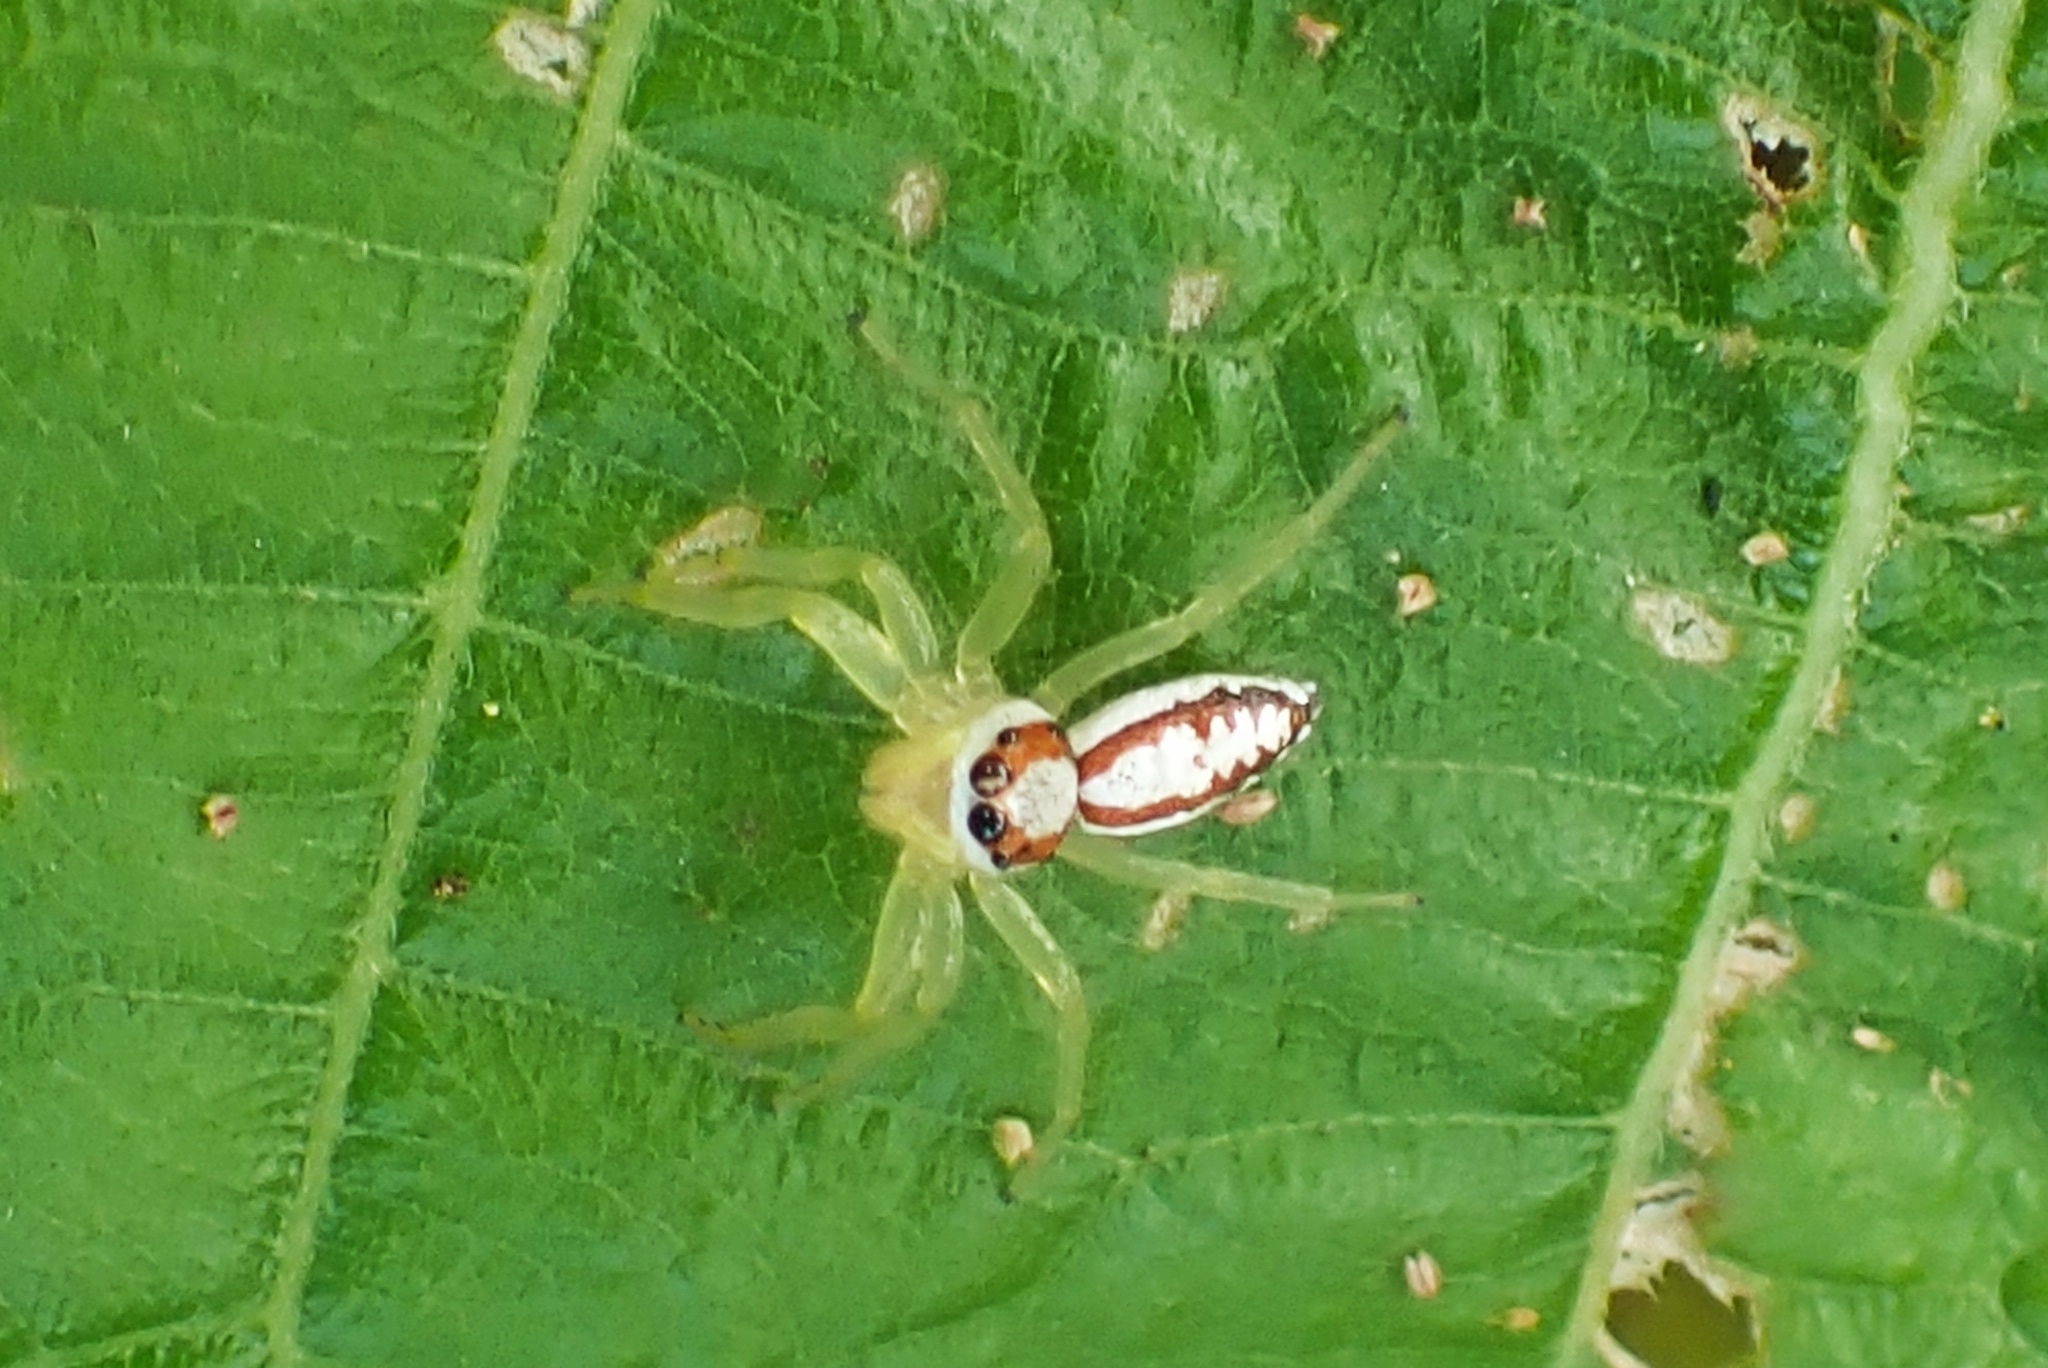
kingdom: Animalia
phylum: Arthropoda
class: Arachnida
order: Araneae
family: Salticidae
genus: Epocilla
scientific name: Epocilla calcarata
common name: Jumping spider
